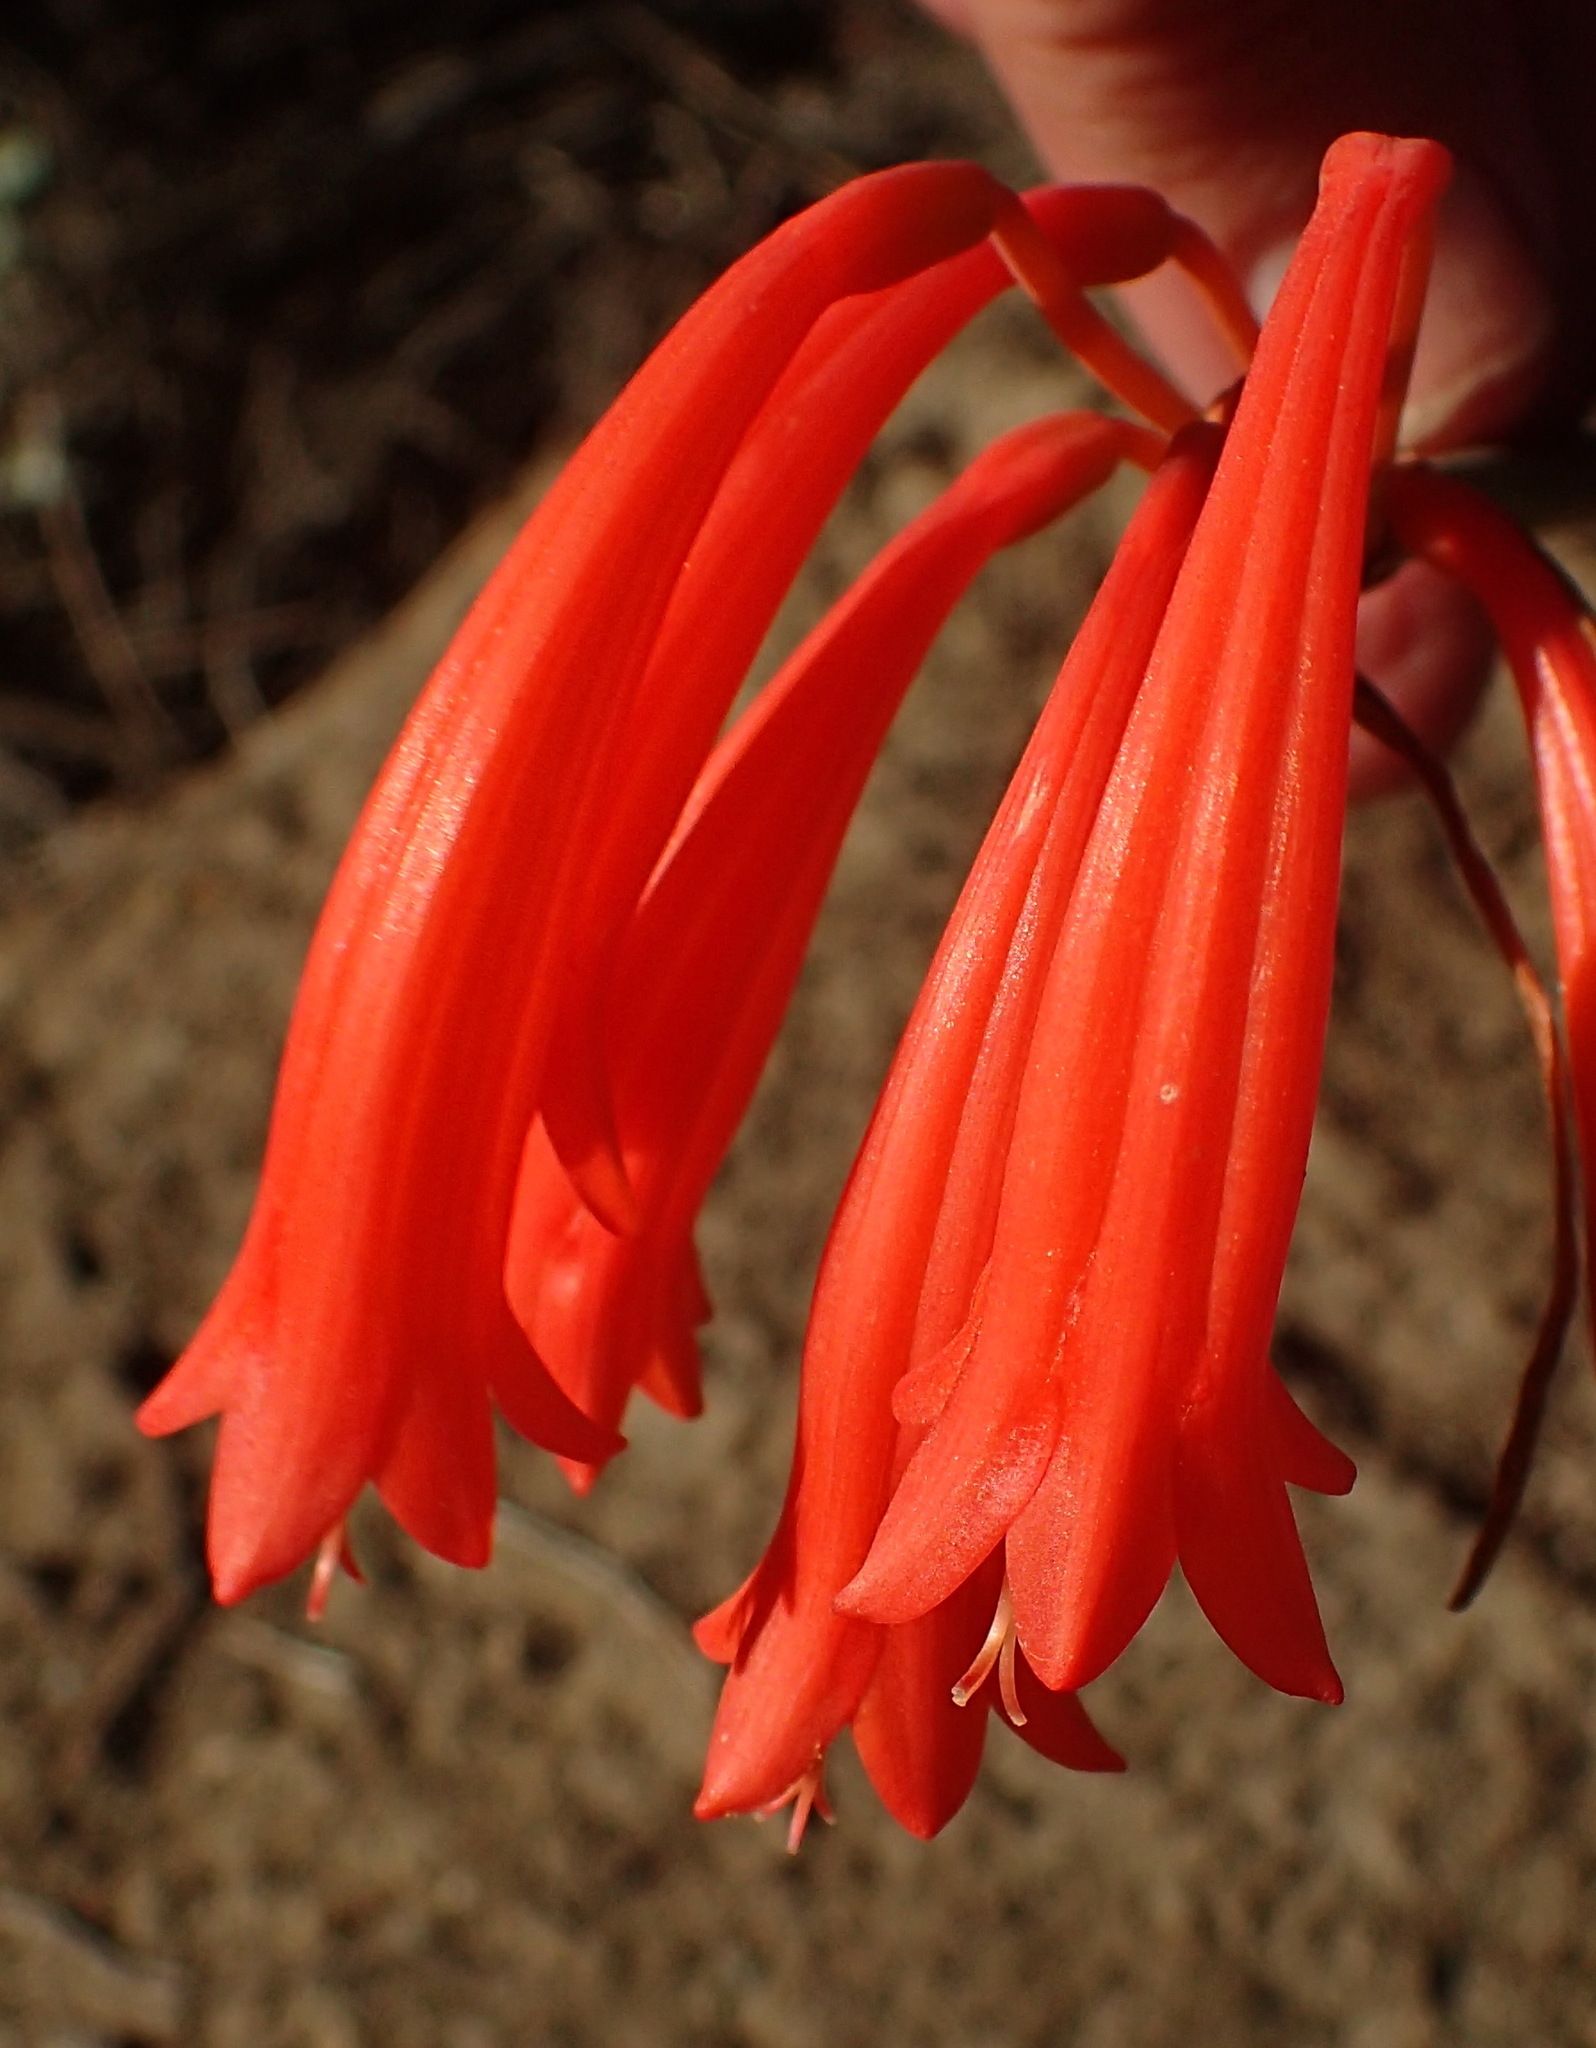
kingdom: Plantae
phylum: Tracheophyta
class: Liliopsida
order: Asparagales
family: Amaryllidaceae
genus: Cyrtanthus
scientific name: Cyrtanthus angustifolius
